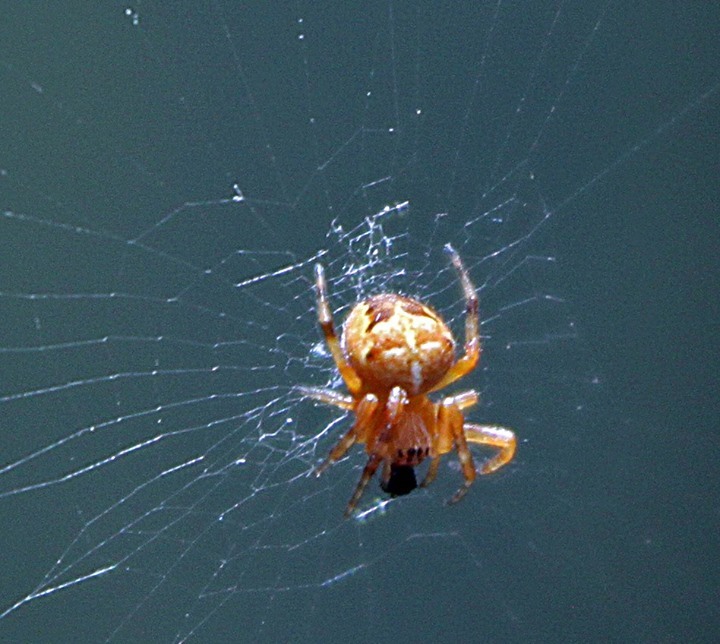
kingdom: Animalia
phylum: Arthropoda
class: Arachnida
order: Araneae
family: Araneidae
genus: Araneus
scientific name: Araneus diadematus
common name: Cross orbweaver
